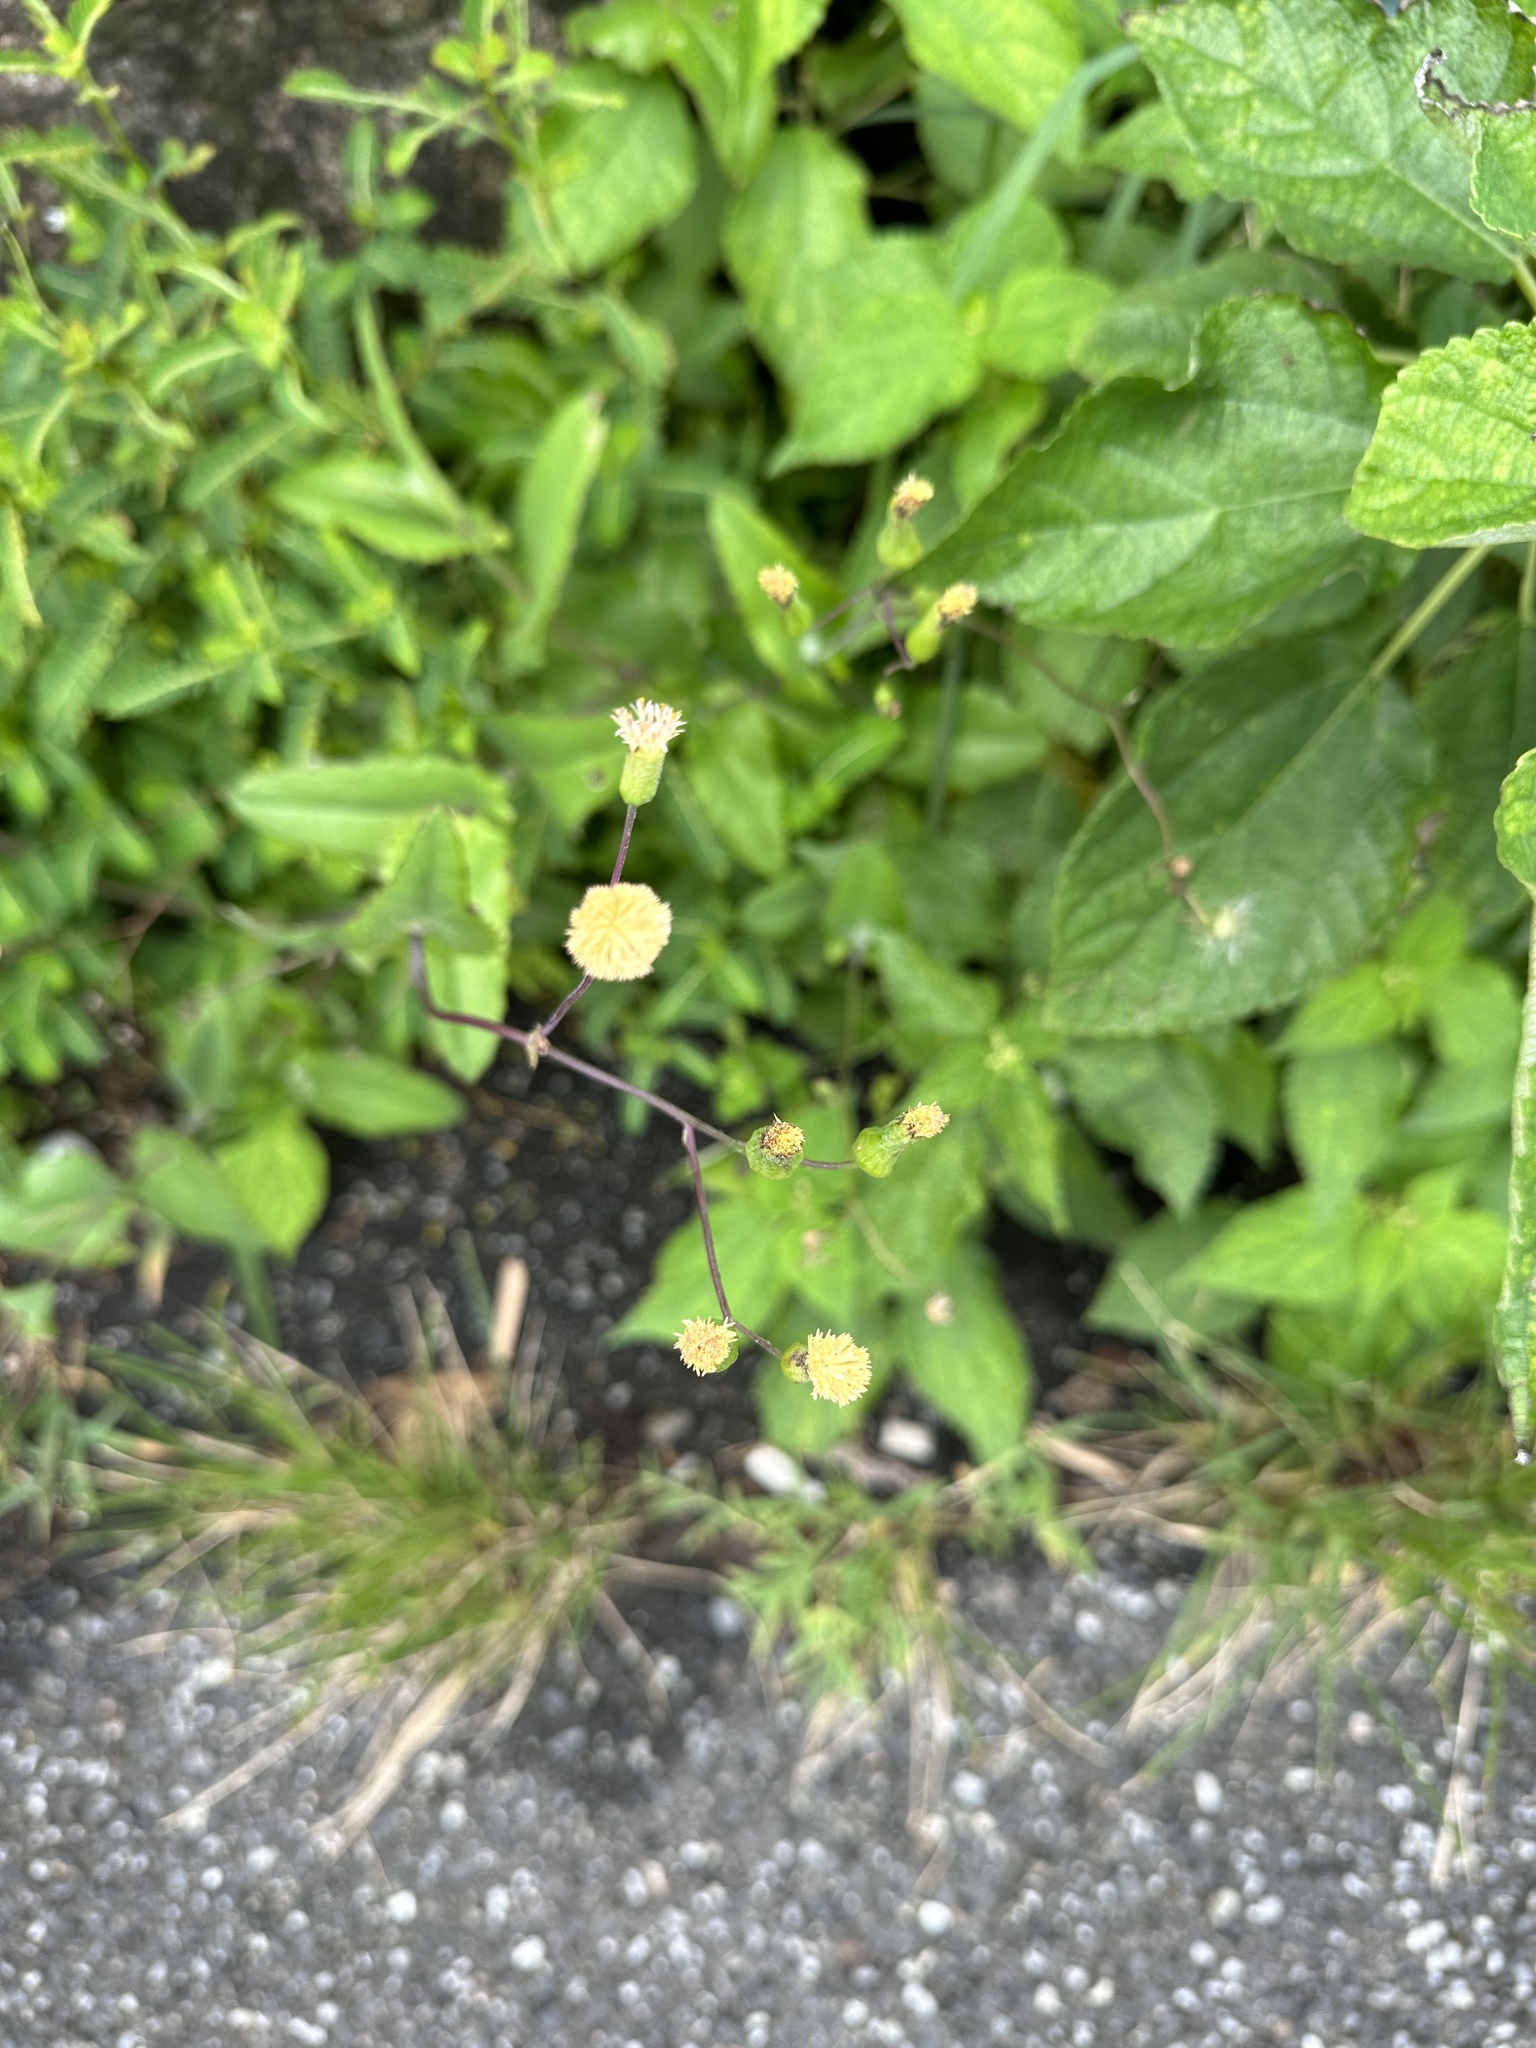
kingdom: Plantae
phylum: Tracheophyta
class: Magnoliopsida
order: Asterales
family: Asteraceae
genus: Emilia
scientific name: Emilia praetermissa
